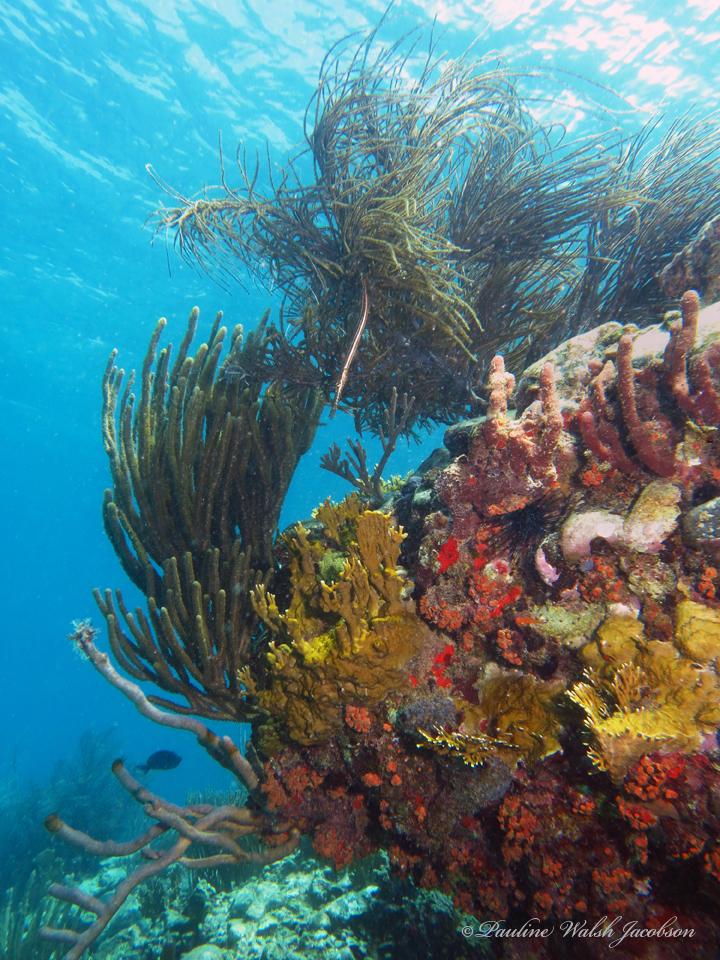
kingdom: Animalia
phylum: Chordata
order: Syngnathiformes
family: Aulostomidae
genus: Aulostomus
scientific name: Aulostomus maculatus
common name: West atlantic trumpetfish
